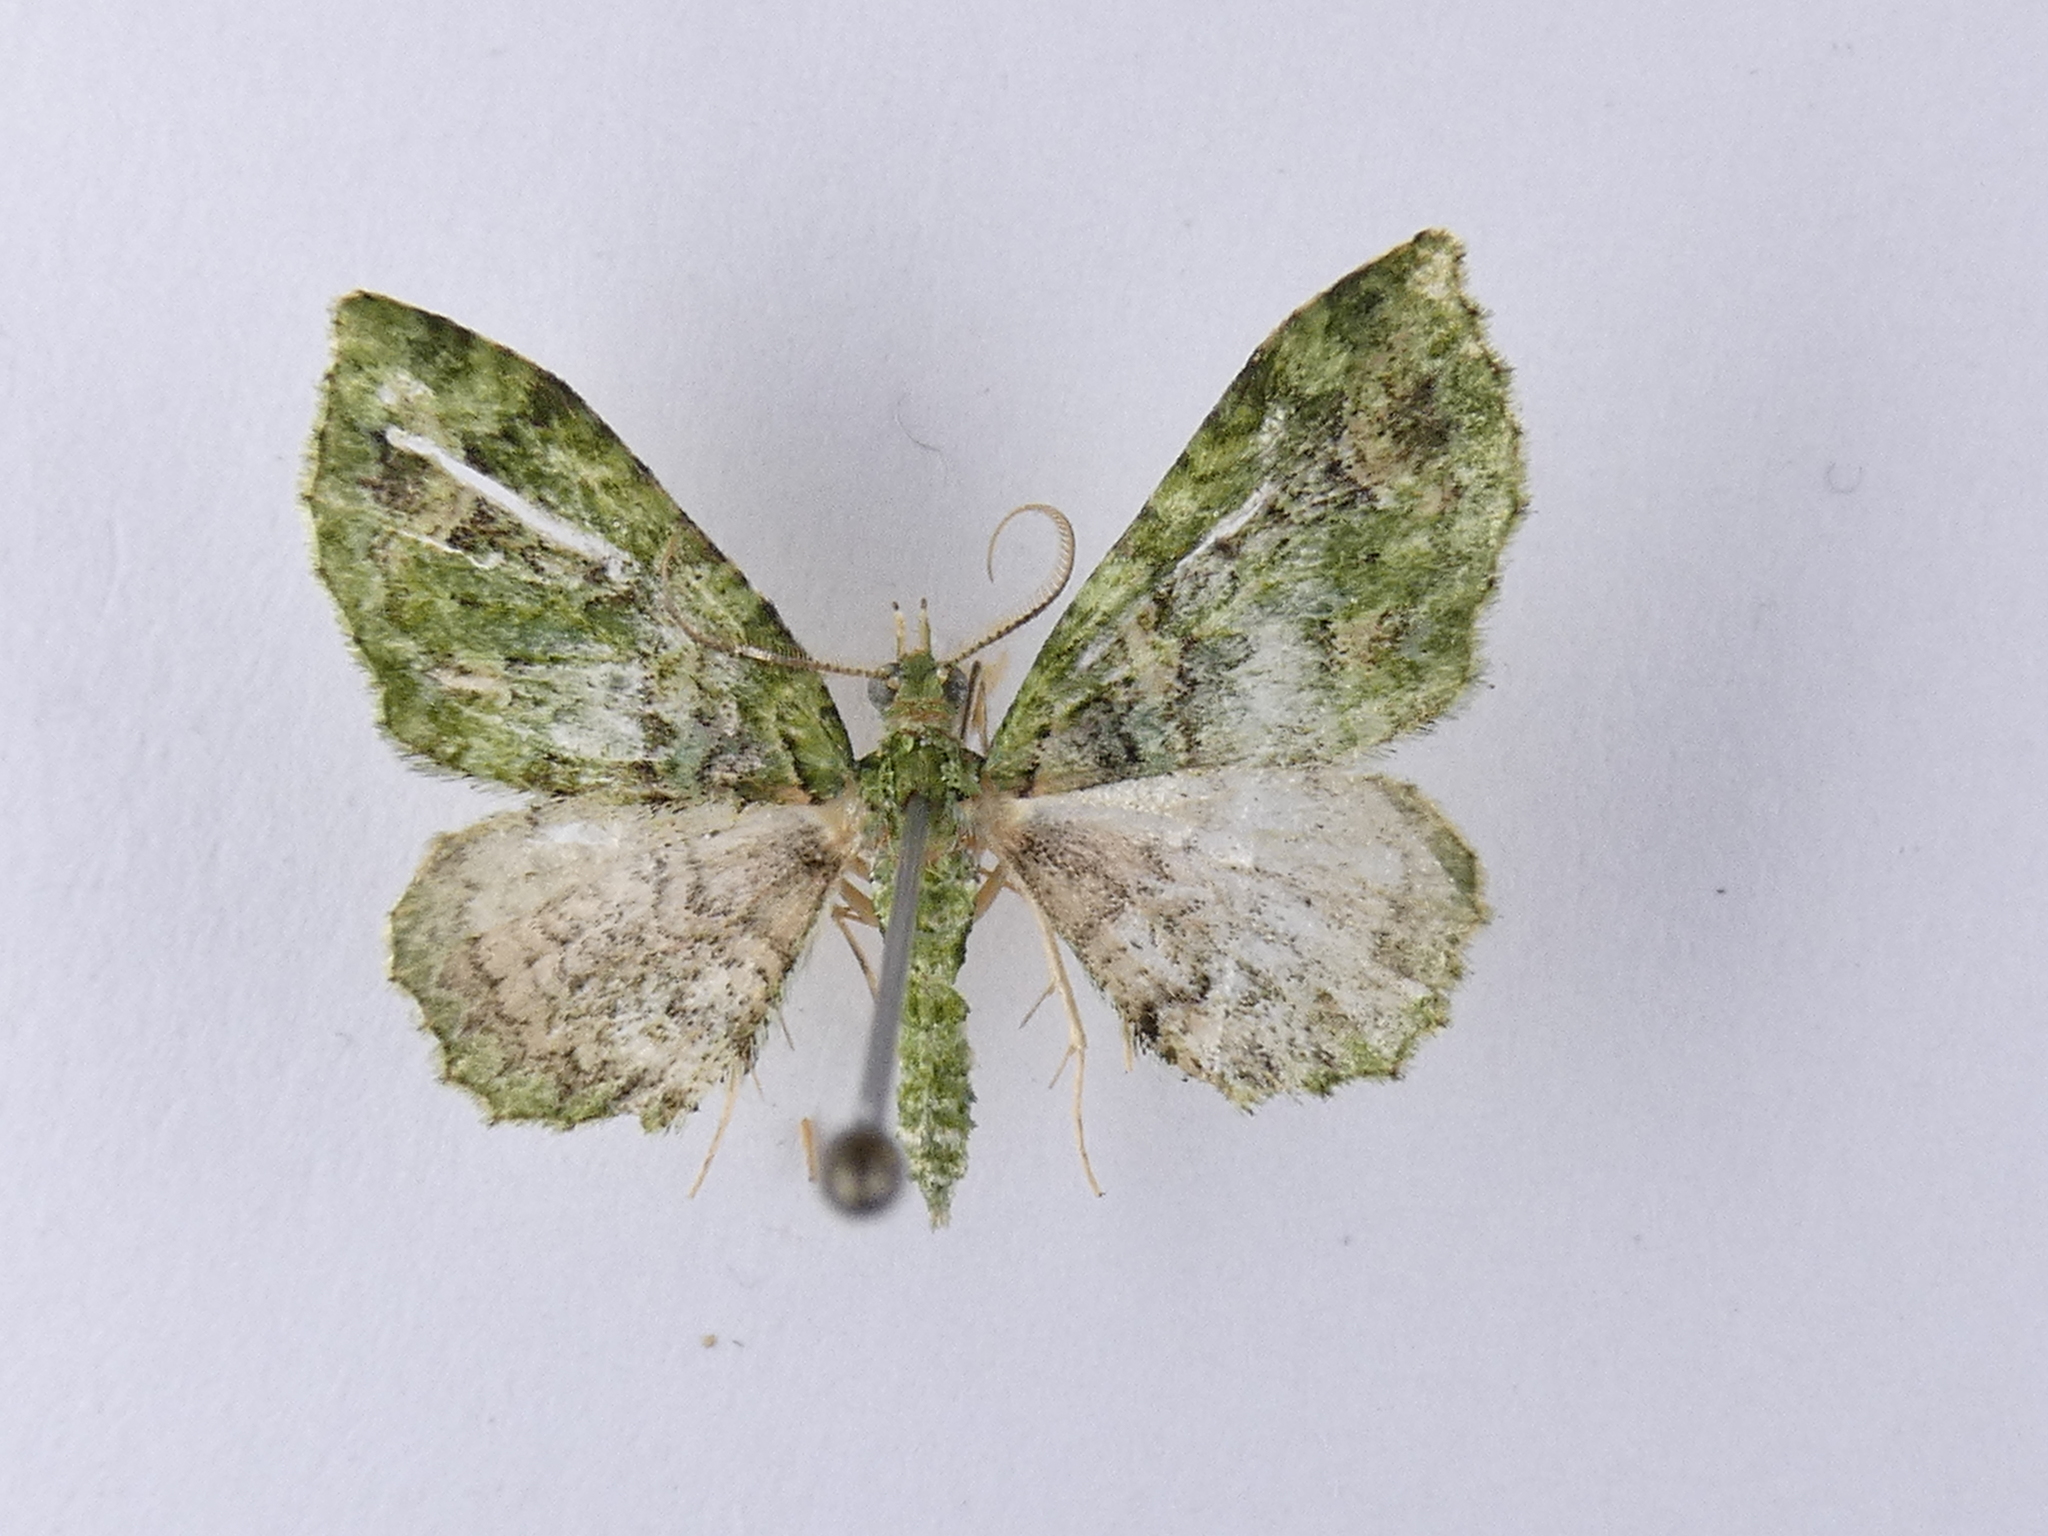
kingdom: Animalia
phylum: Arthropoda
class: Insecta
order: Lepidoptera
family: Geometridae
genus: Pasiphila
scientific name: Pasiphila muscosata
